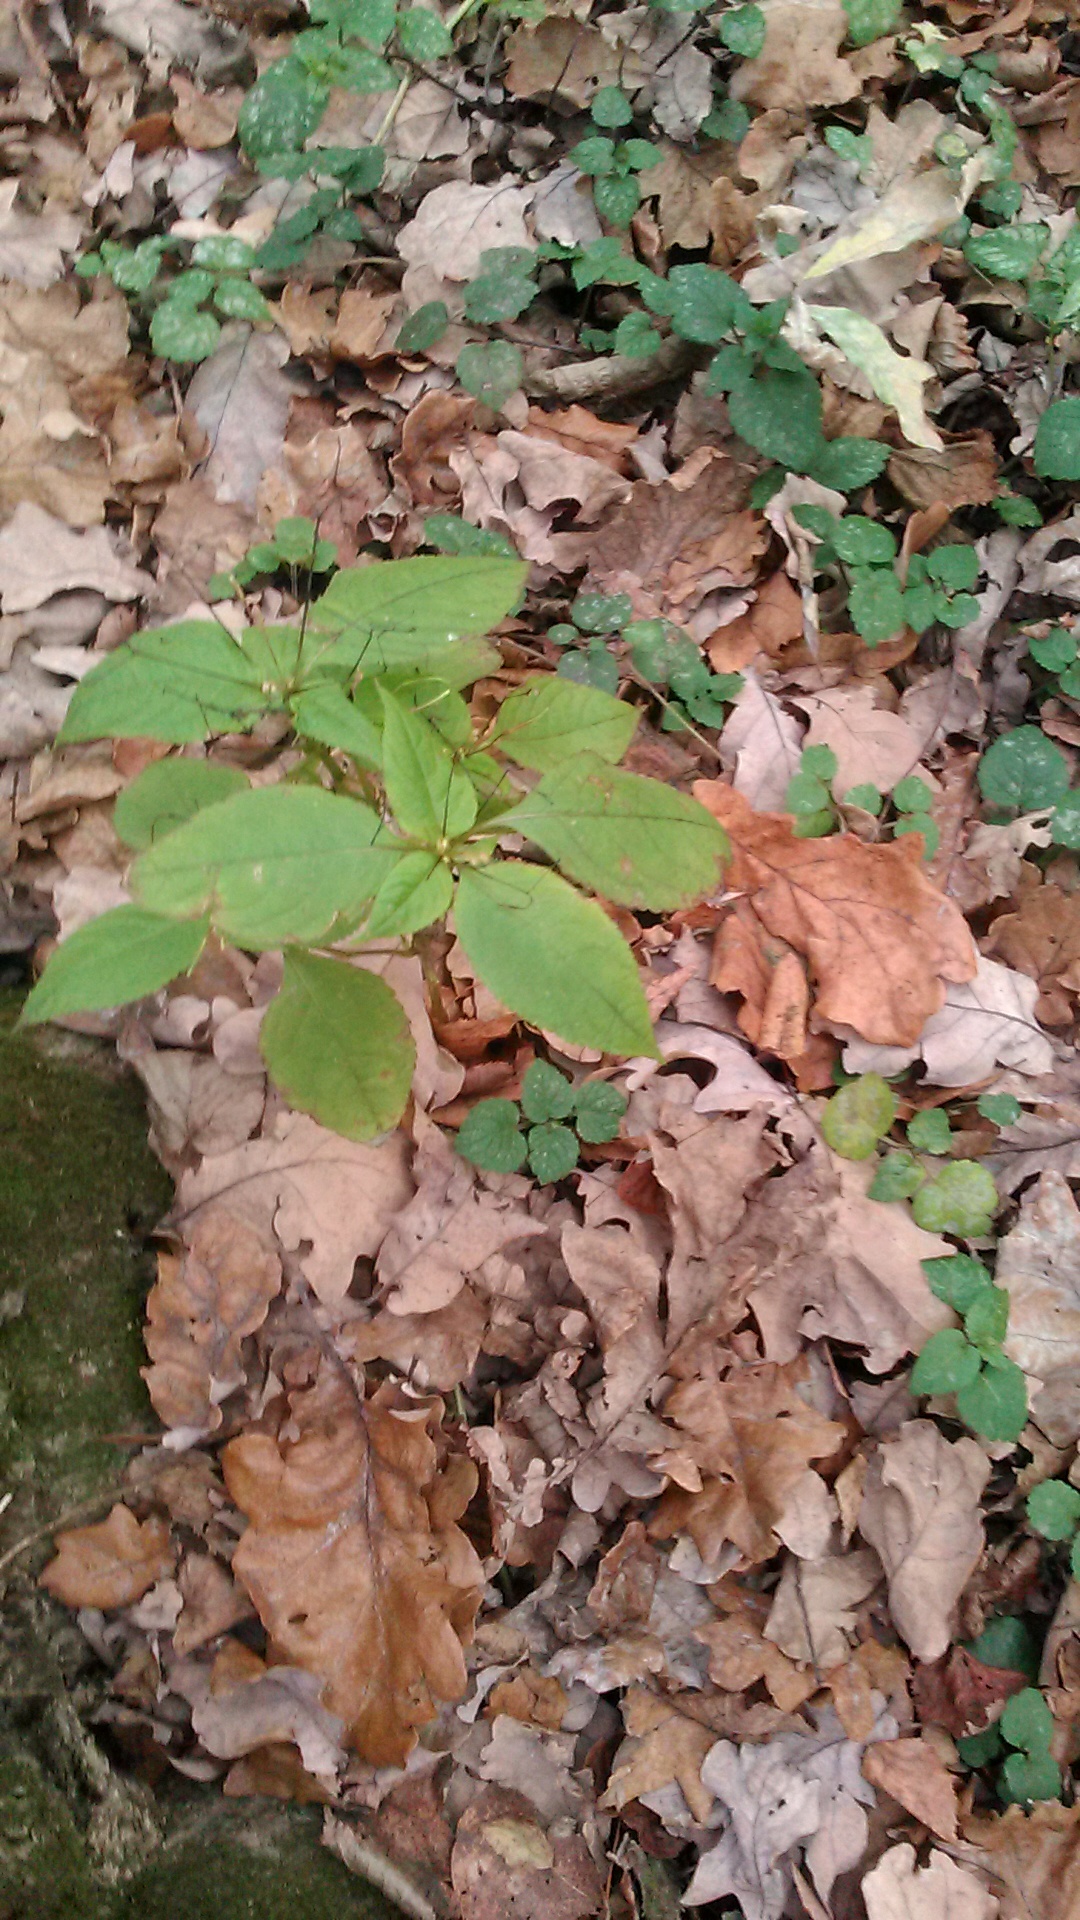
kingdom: Plantae
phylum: Tracheophyta
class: Magnoliopsida
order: Ericales
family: Balsaminaceae
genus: Impatiens
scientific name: Impatiens parviflora
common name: Small balsam
